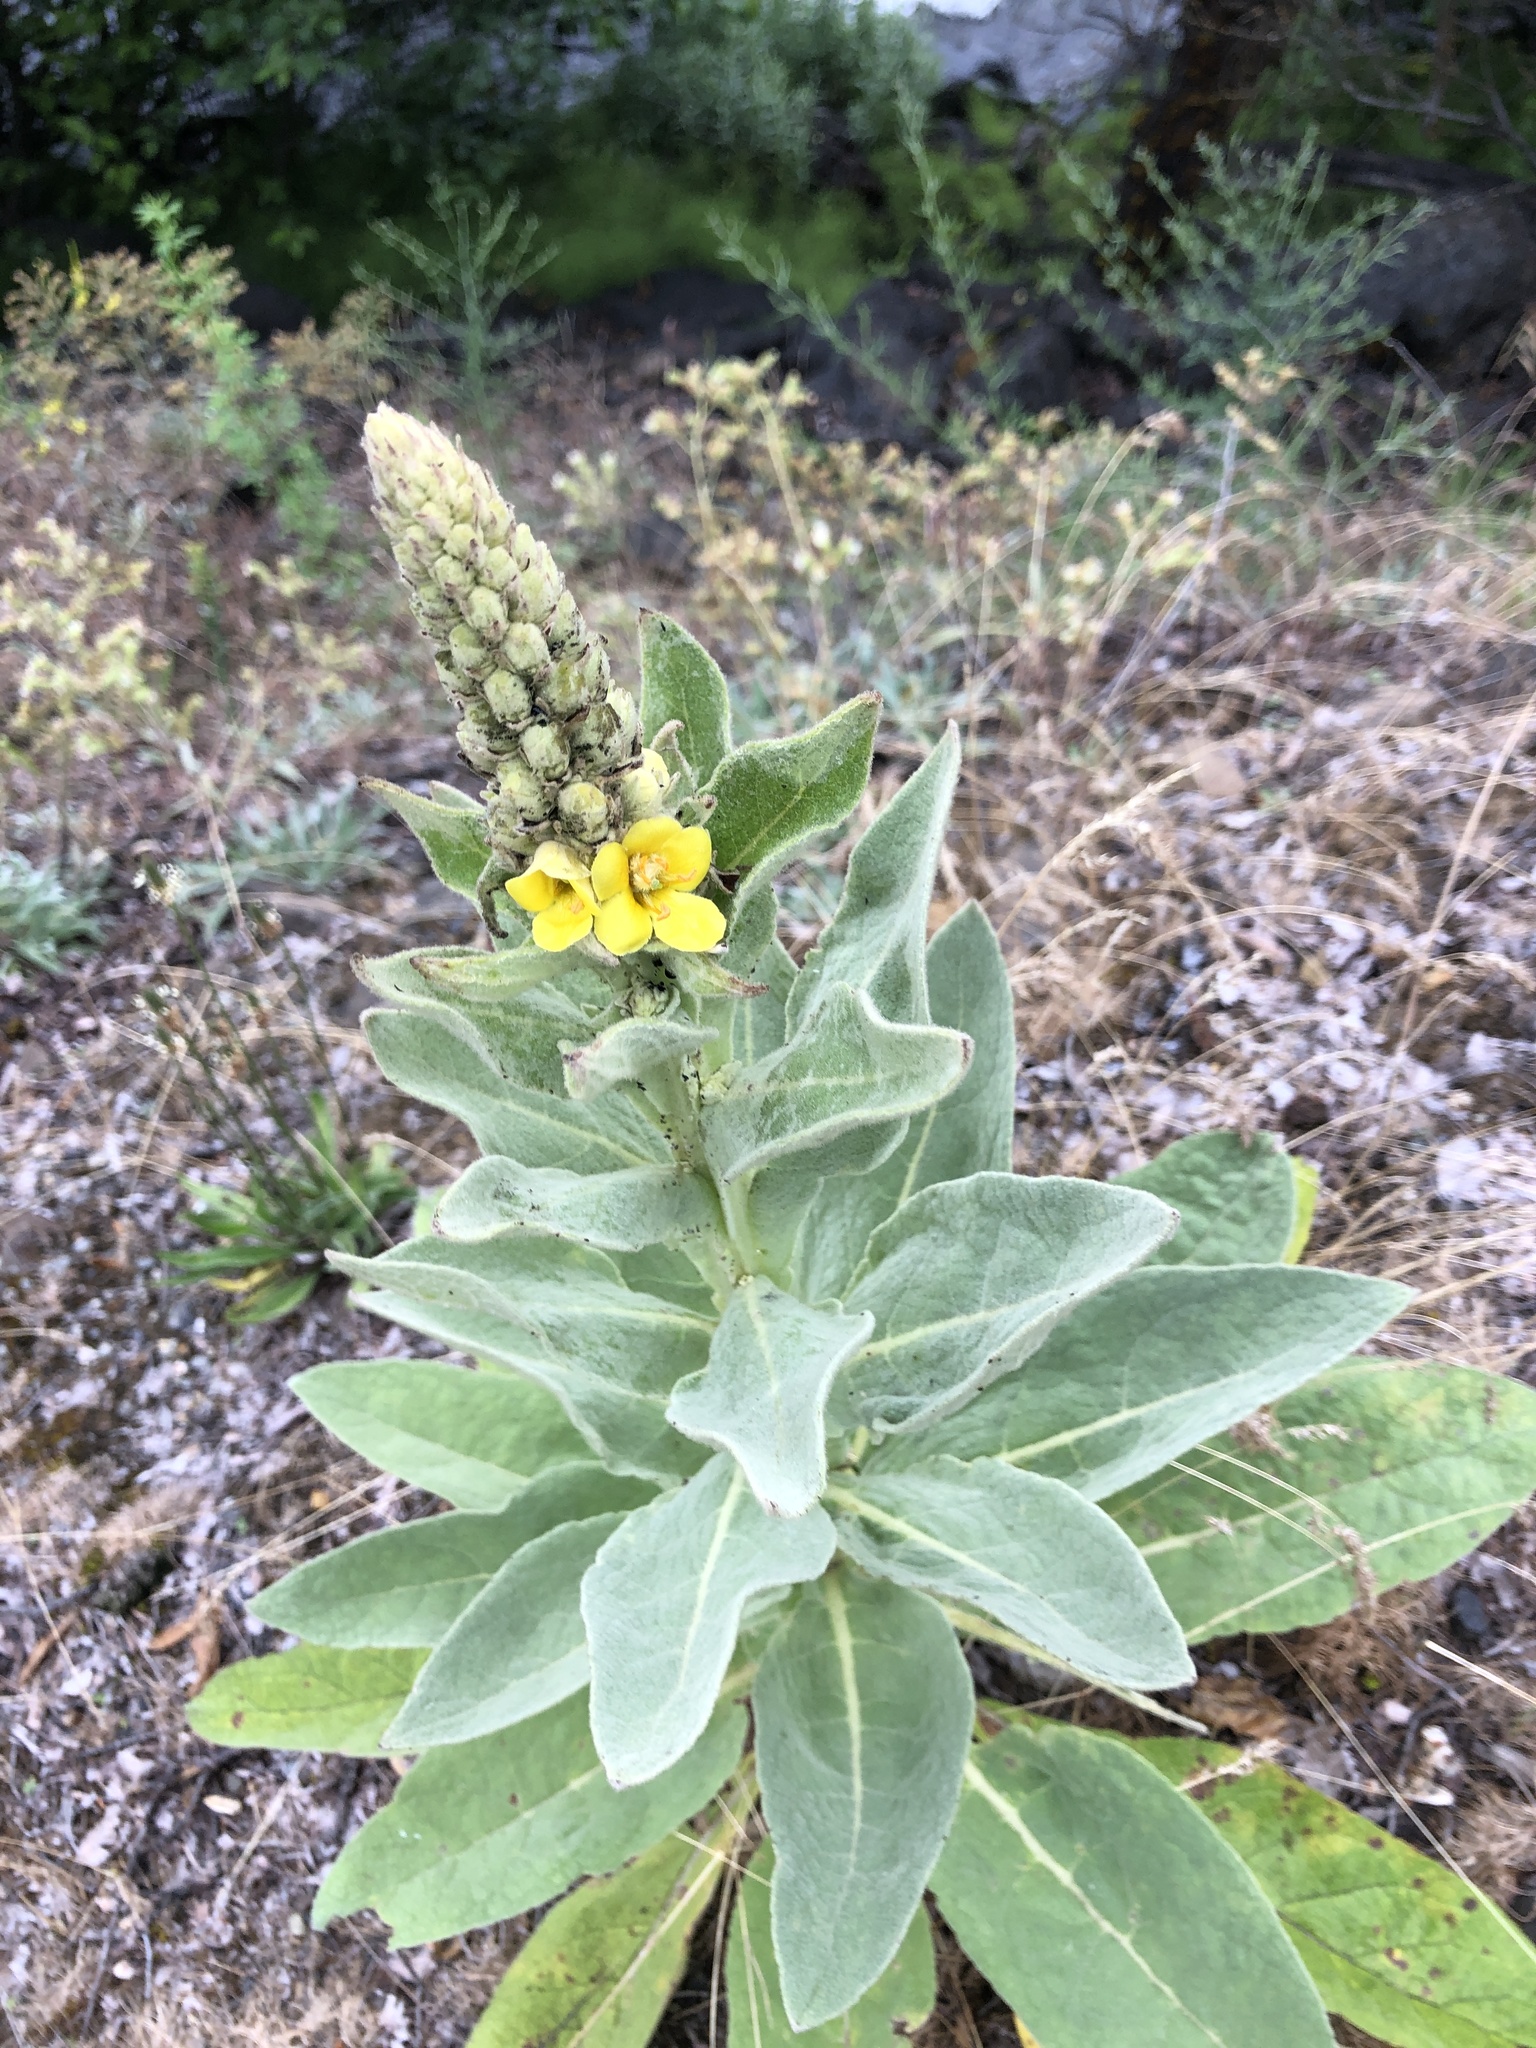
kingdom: Plantae
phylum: Tracheophyta
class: Magnoliopsida
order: Lamiales
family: Scrophulariaceae
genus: Verbascum
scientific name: Verbascum thapsus
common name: Common mullein
